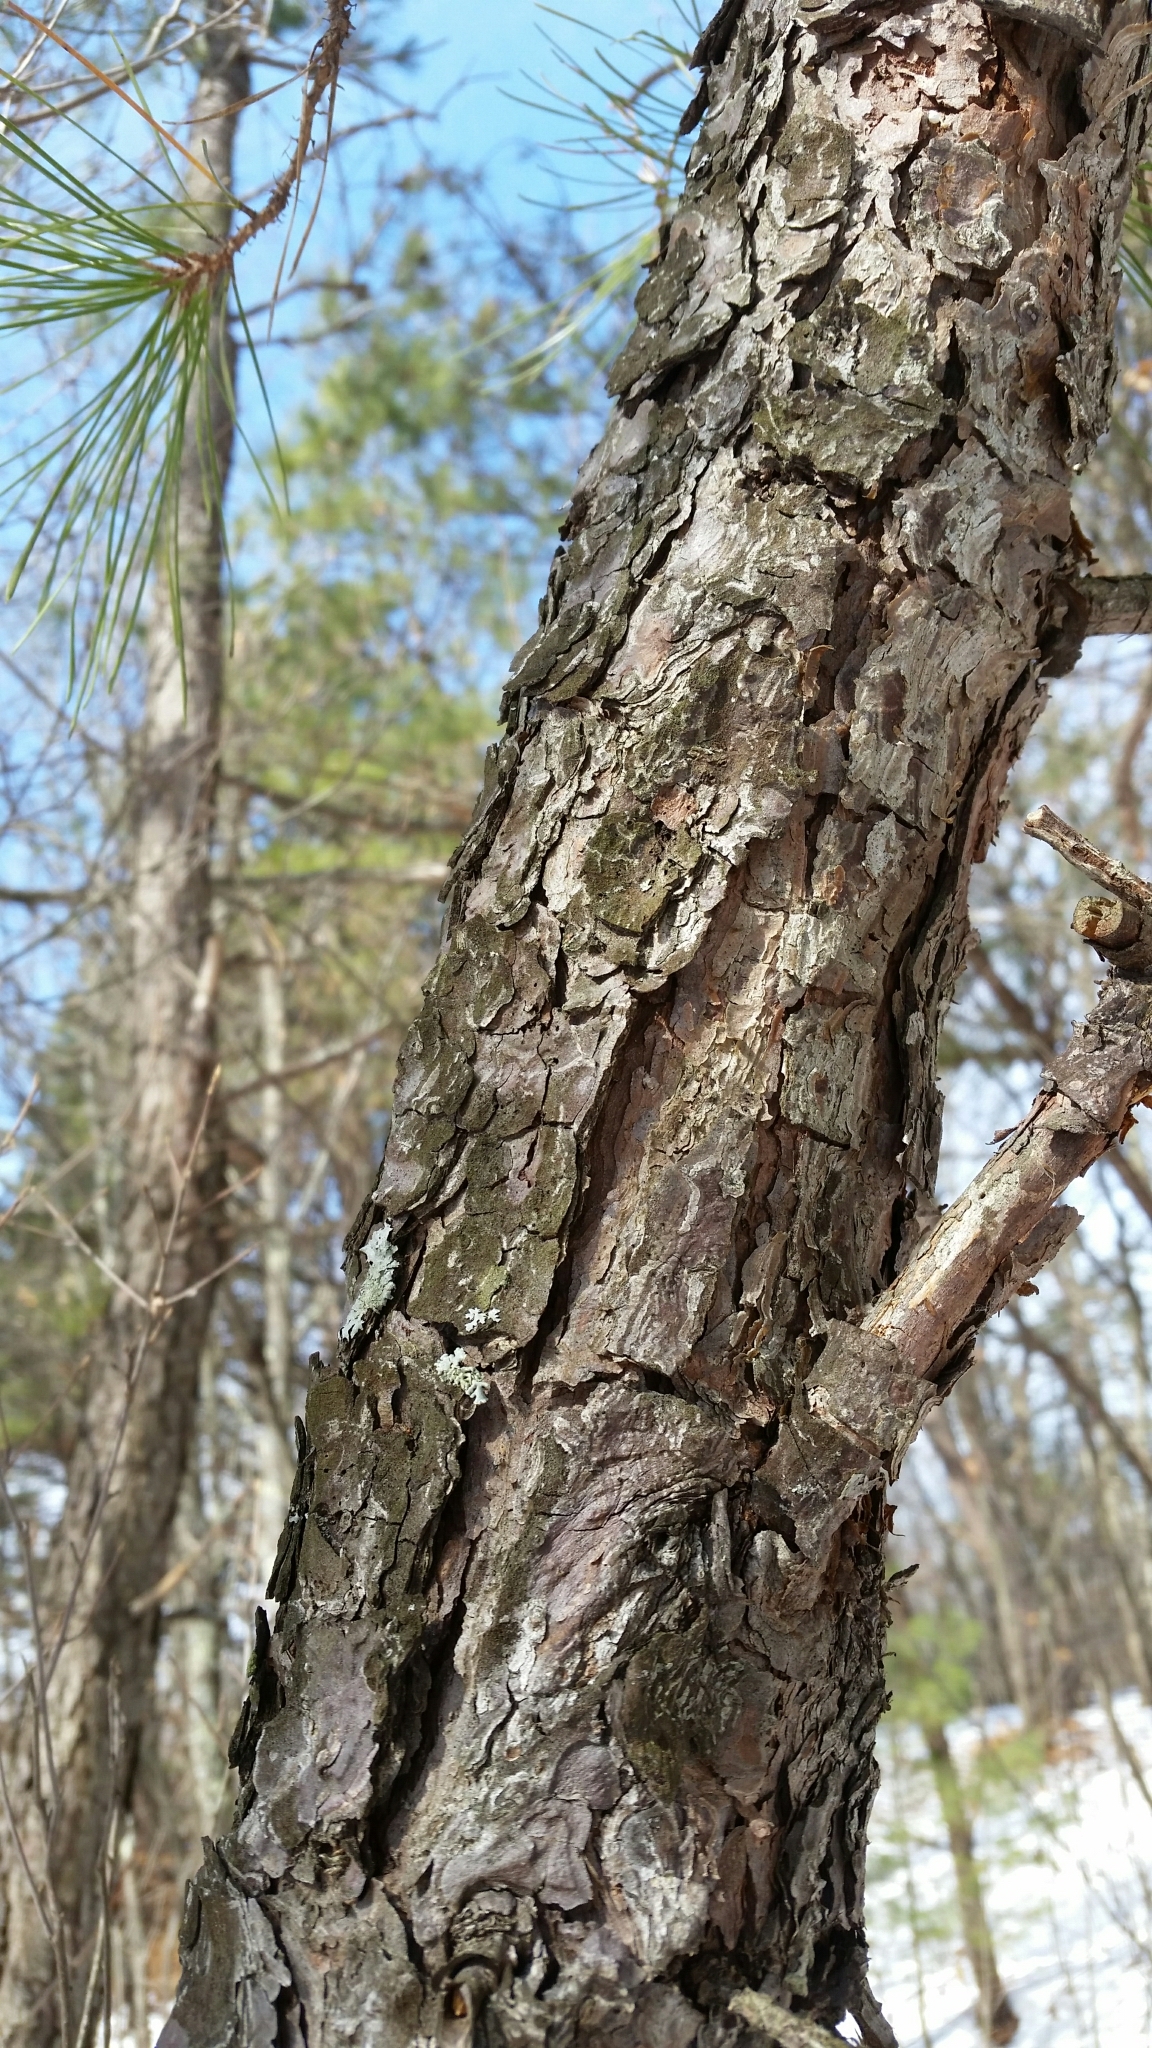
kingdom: Plantae
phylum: Tracheophyta
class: Pinopsida
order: Pinales
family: Pinaceae
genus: Pinus
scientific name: Pinus rigida
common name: Pitch pine
